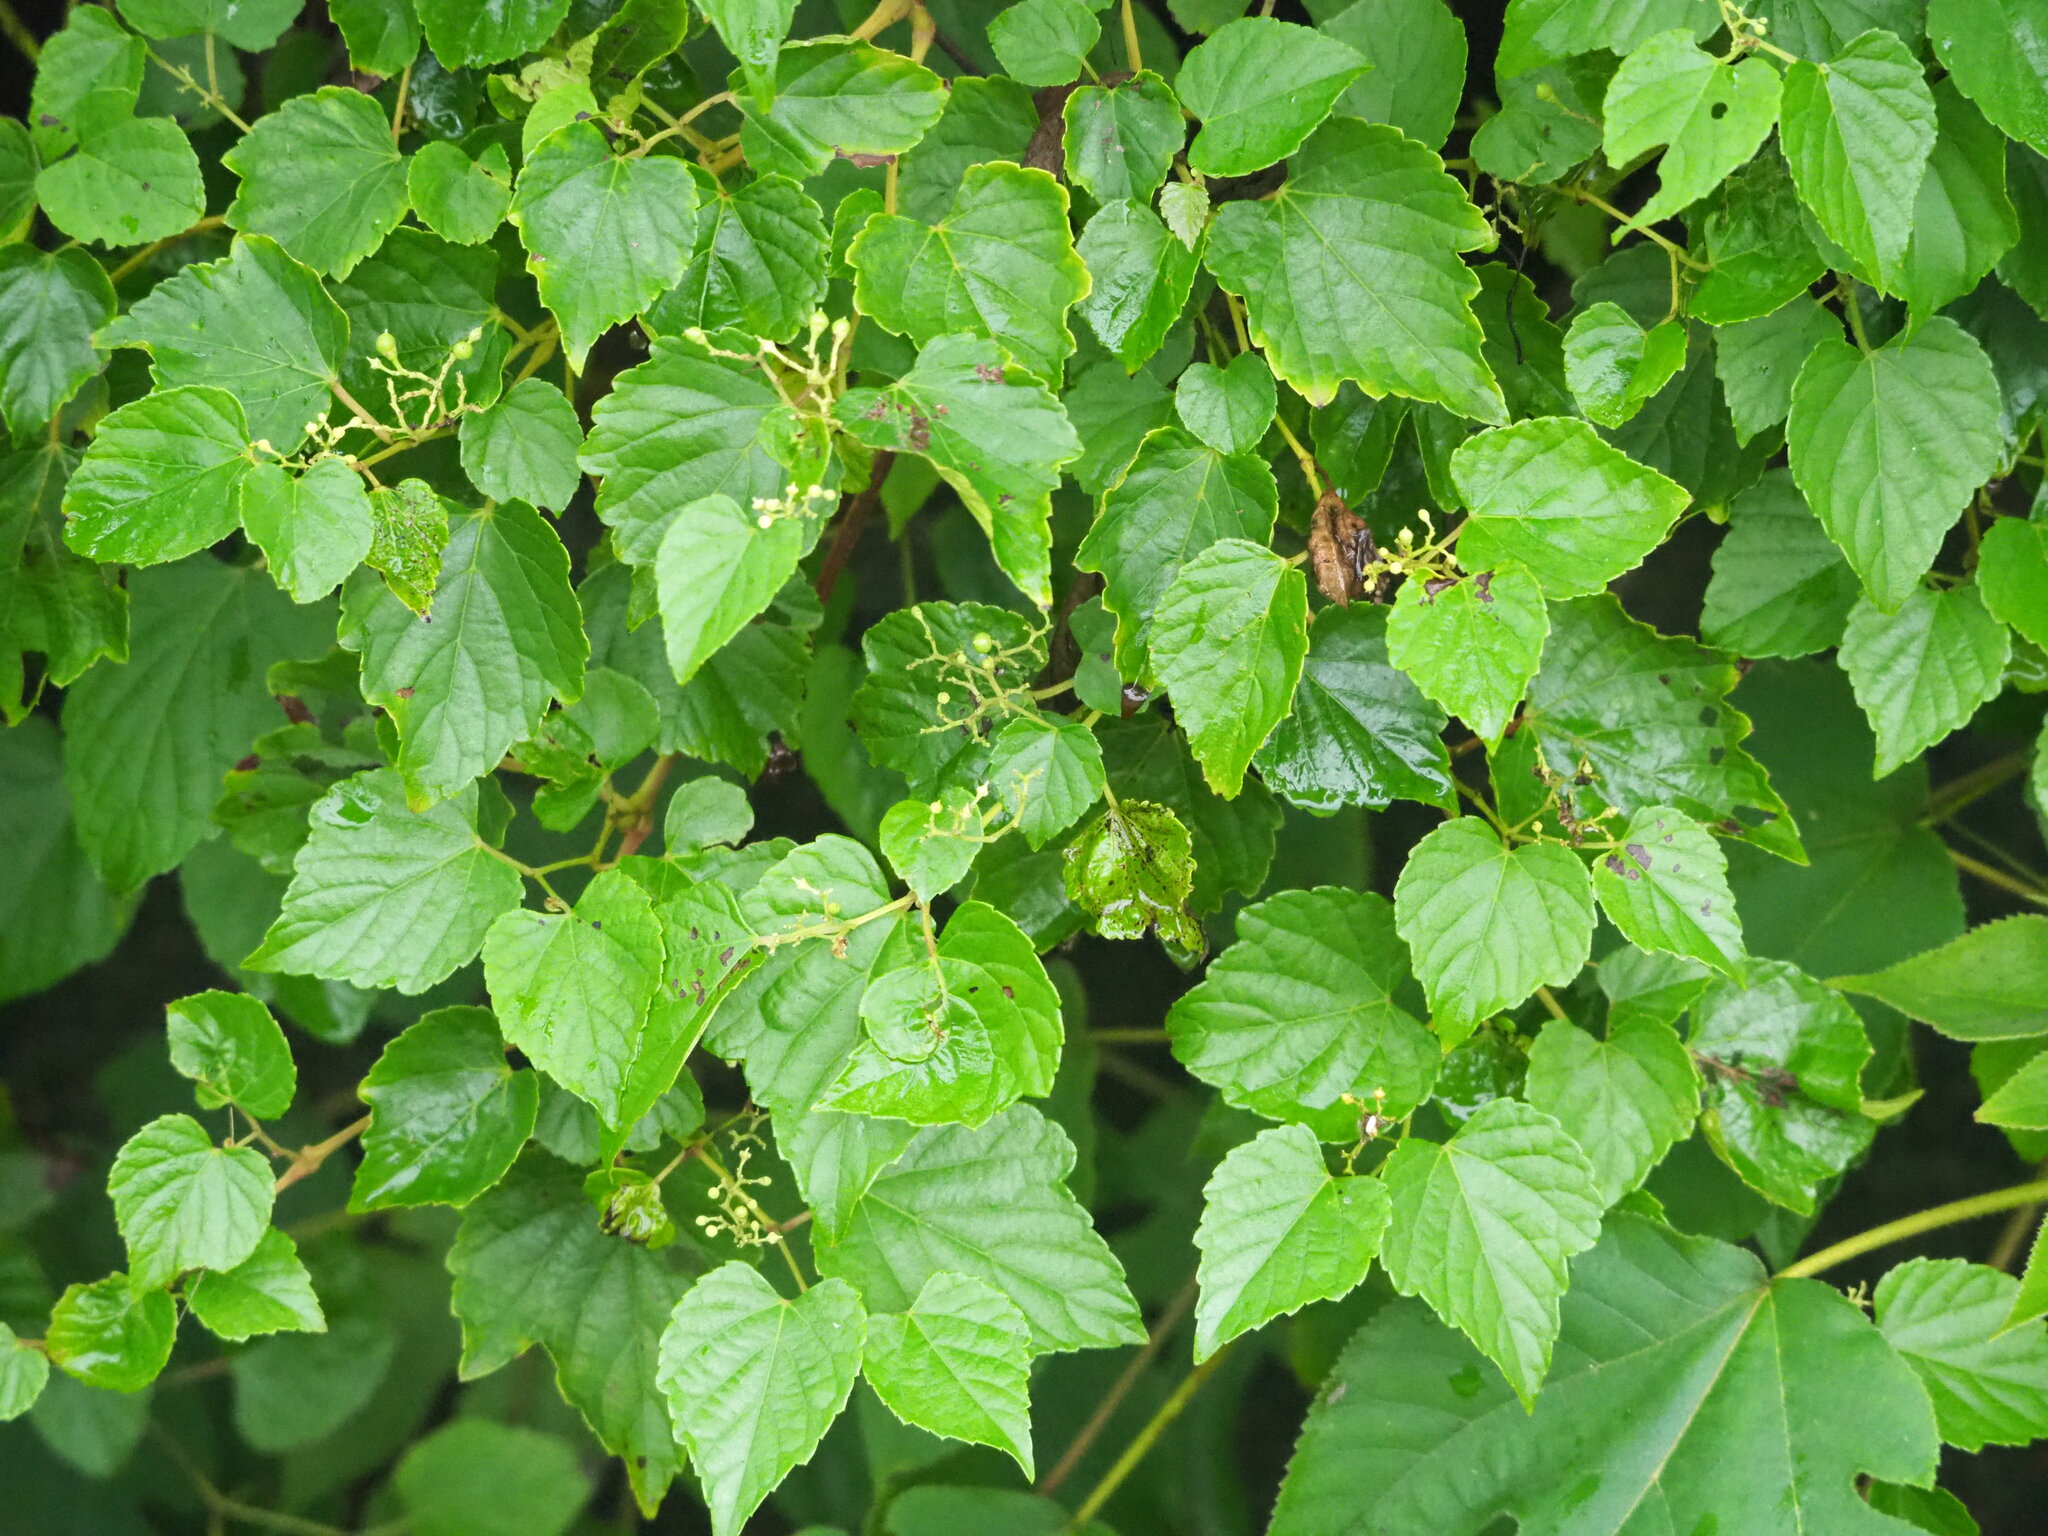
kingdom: Plantae
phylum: Tracheophyta
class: Magnoliopsida
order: Vitales
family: Vitaceae
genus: Ampelopsis
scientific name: Ampelopsis glandulosa
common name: Amur peppervine
